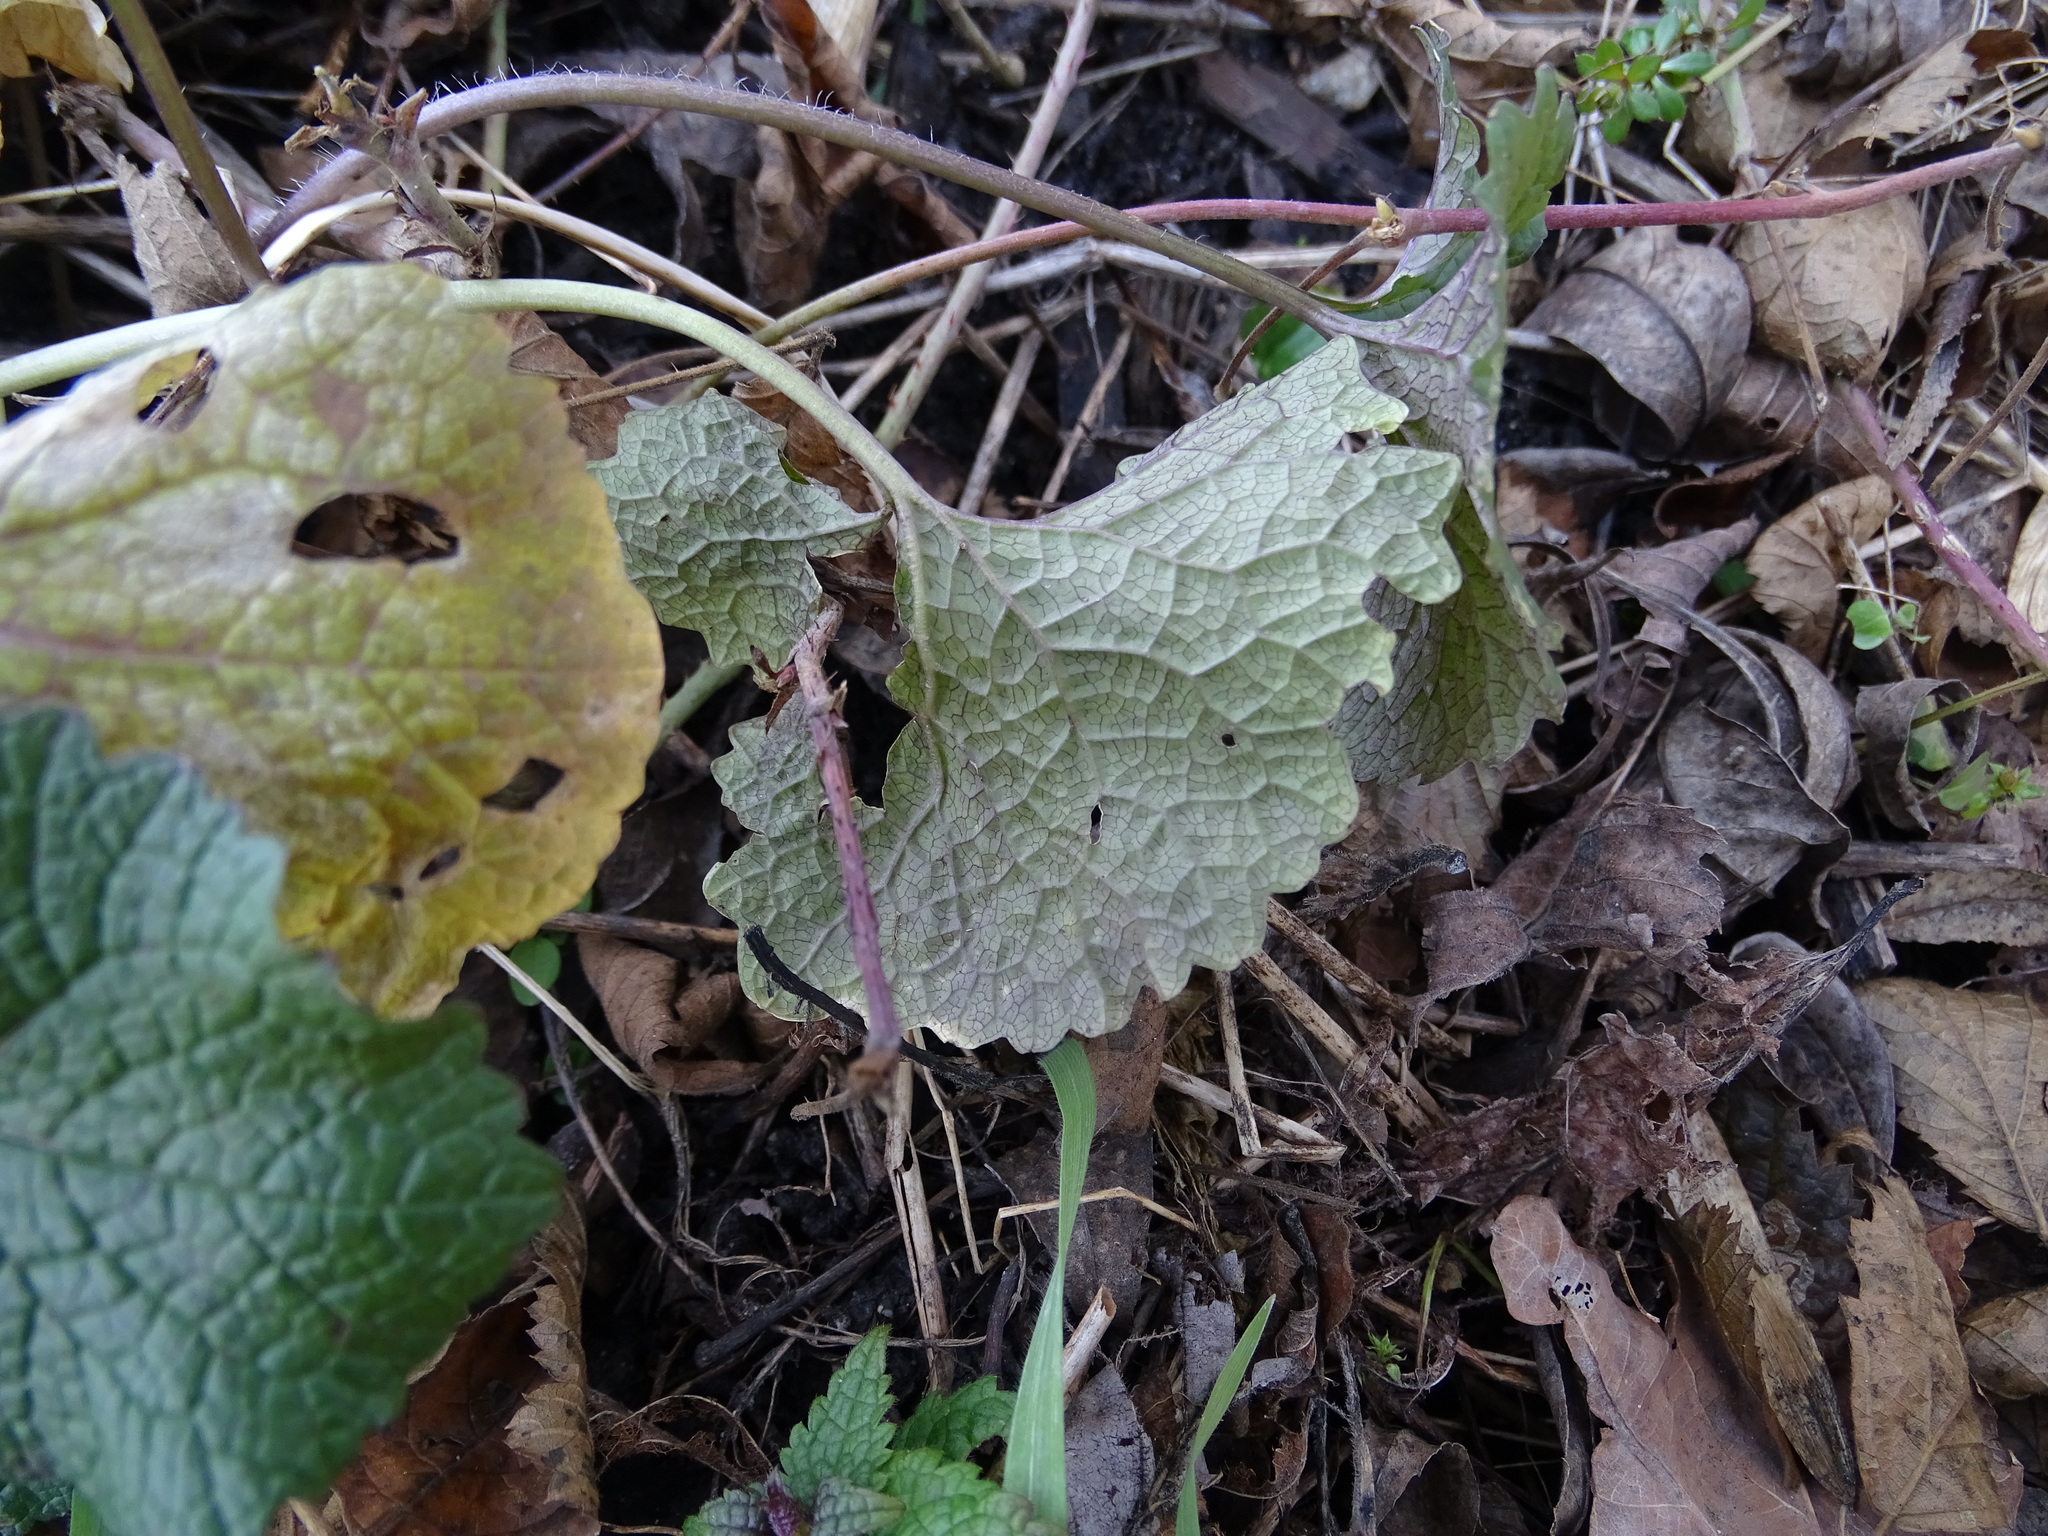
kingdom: Plantae
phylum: Tracheophyta
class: Magnoliopsida
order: Brassicales
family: Brassicaceae
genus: Alliaria
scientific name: Alliaria petiolata
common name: Garlic mustard
